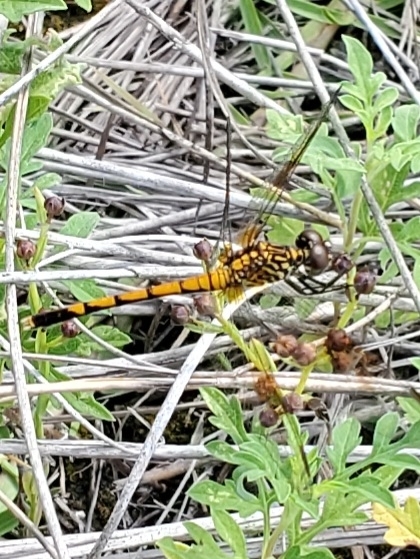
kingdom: Animalia
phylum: Arthropoda
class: Insecta
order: Odonata
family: Libellulidae
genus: Erythrodiplax
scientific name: Erythrodiplax berenice
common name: Seaside dragonlet
